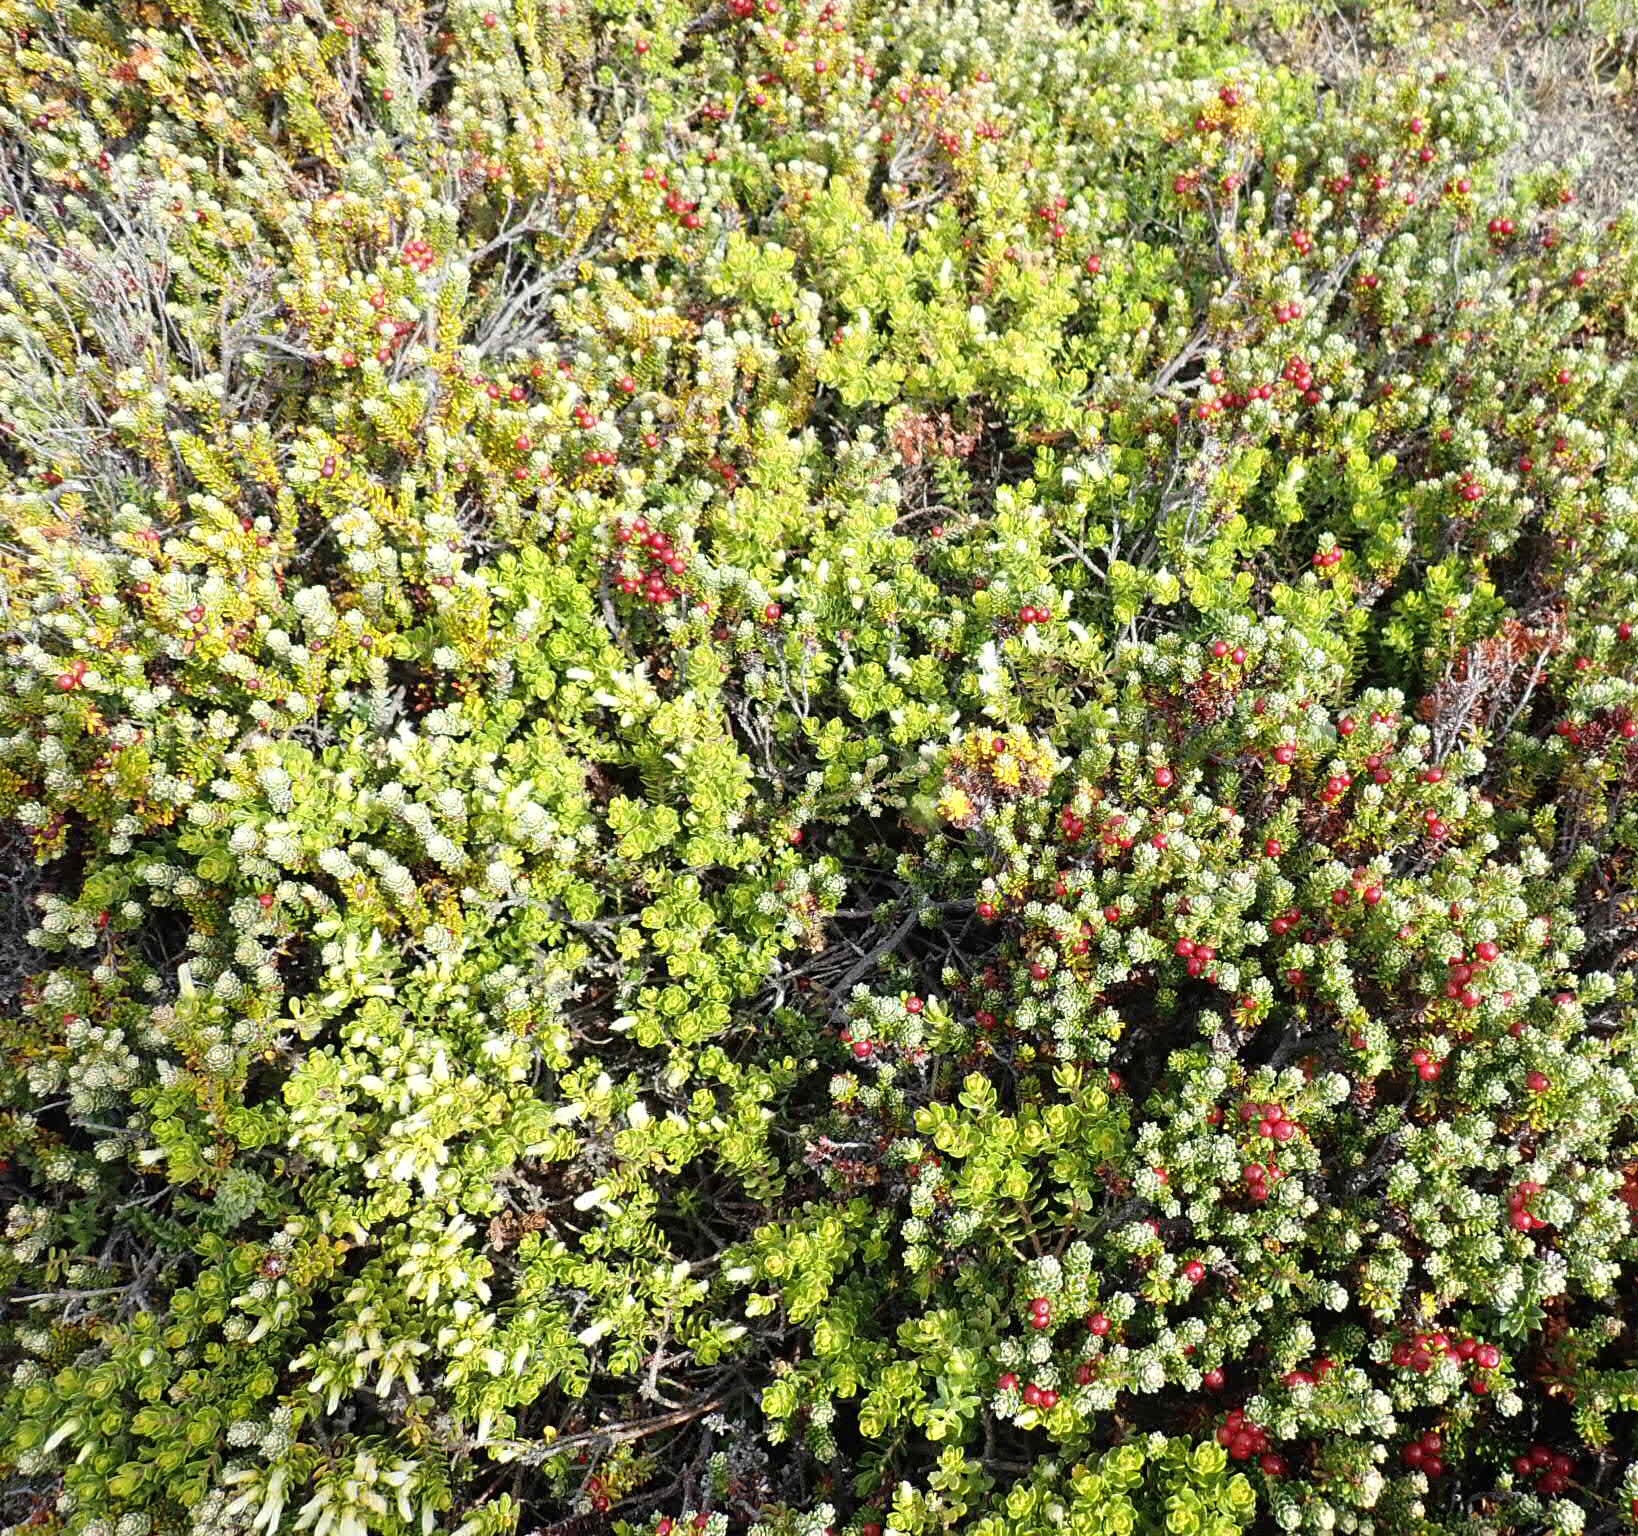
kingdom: Plantae
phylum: Tracheophyta
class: Magnoliopsida
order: Ericales
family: Ericaceae
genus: Empetrum
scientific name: Empetrum rubrum
